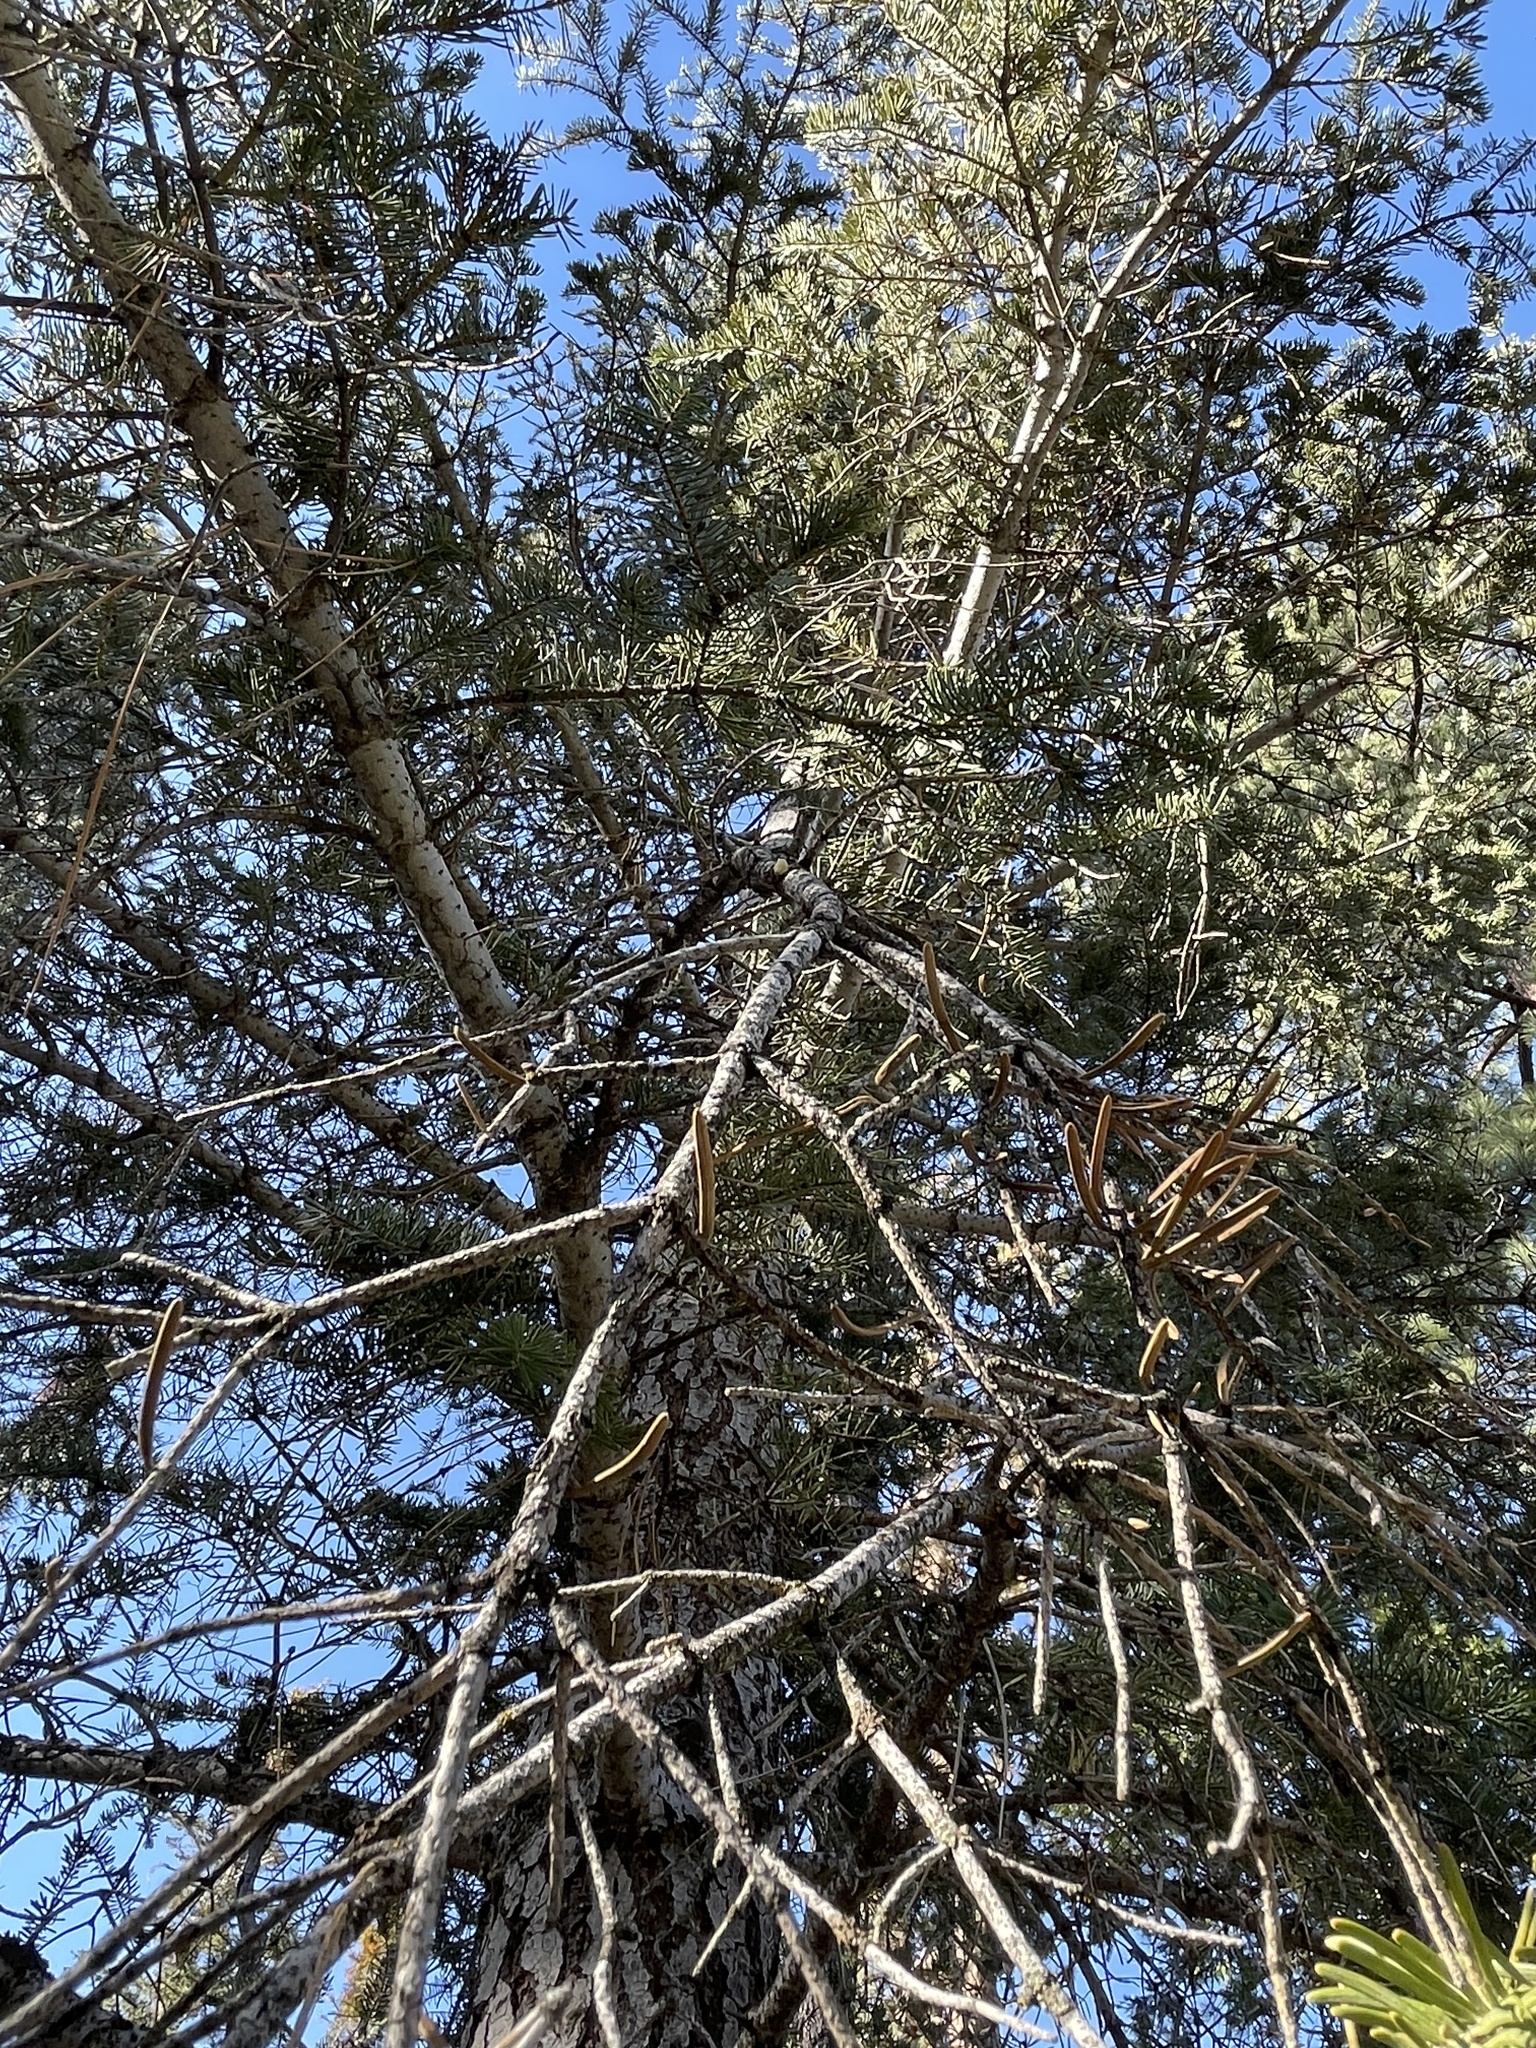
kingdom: Plantae
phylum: Tracheophyta
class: Pinopsida
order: Pinales
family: Pinaceae
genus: Abies
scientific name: Abies concolor
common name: Colorado fir
